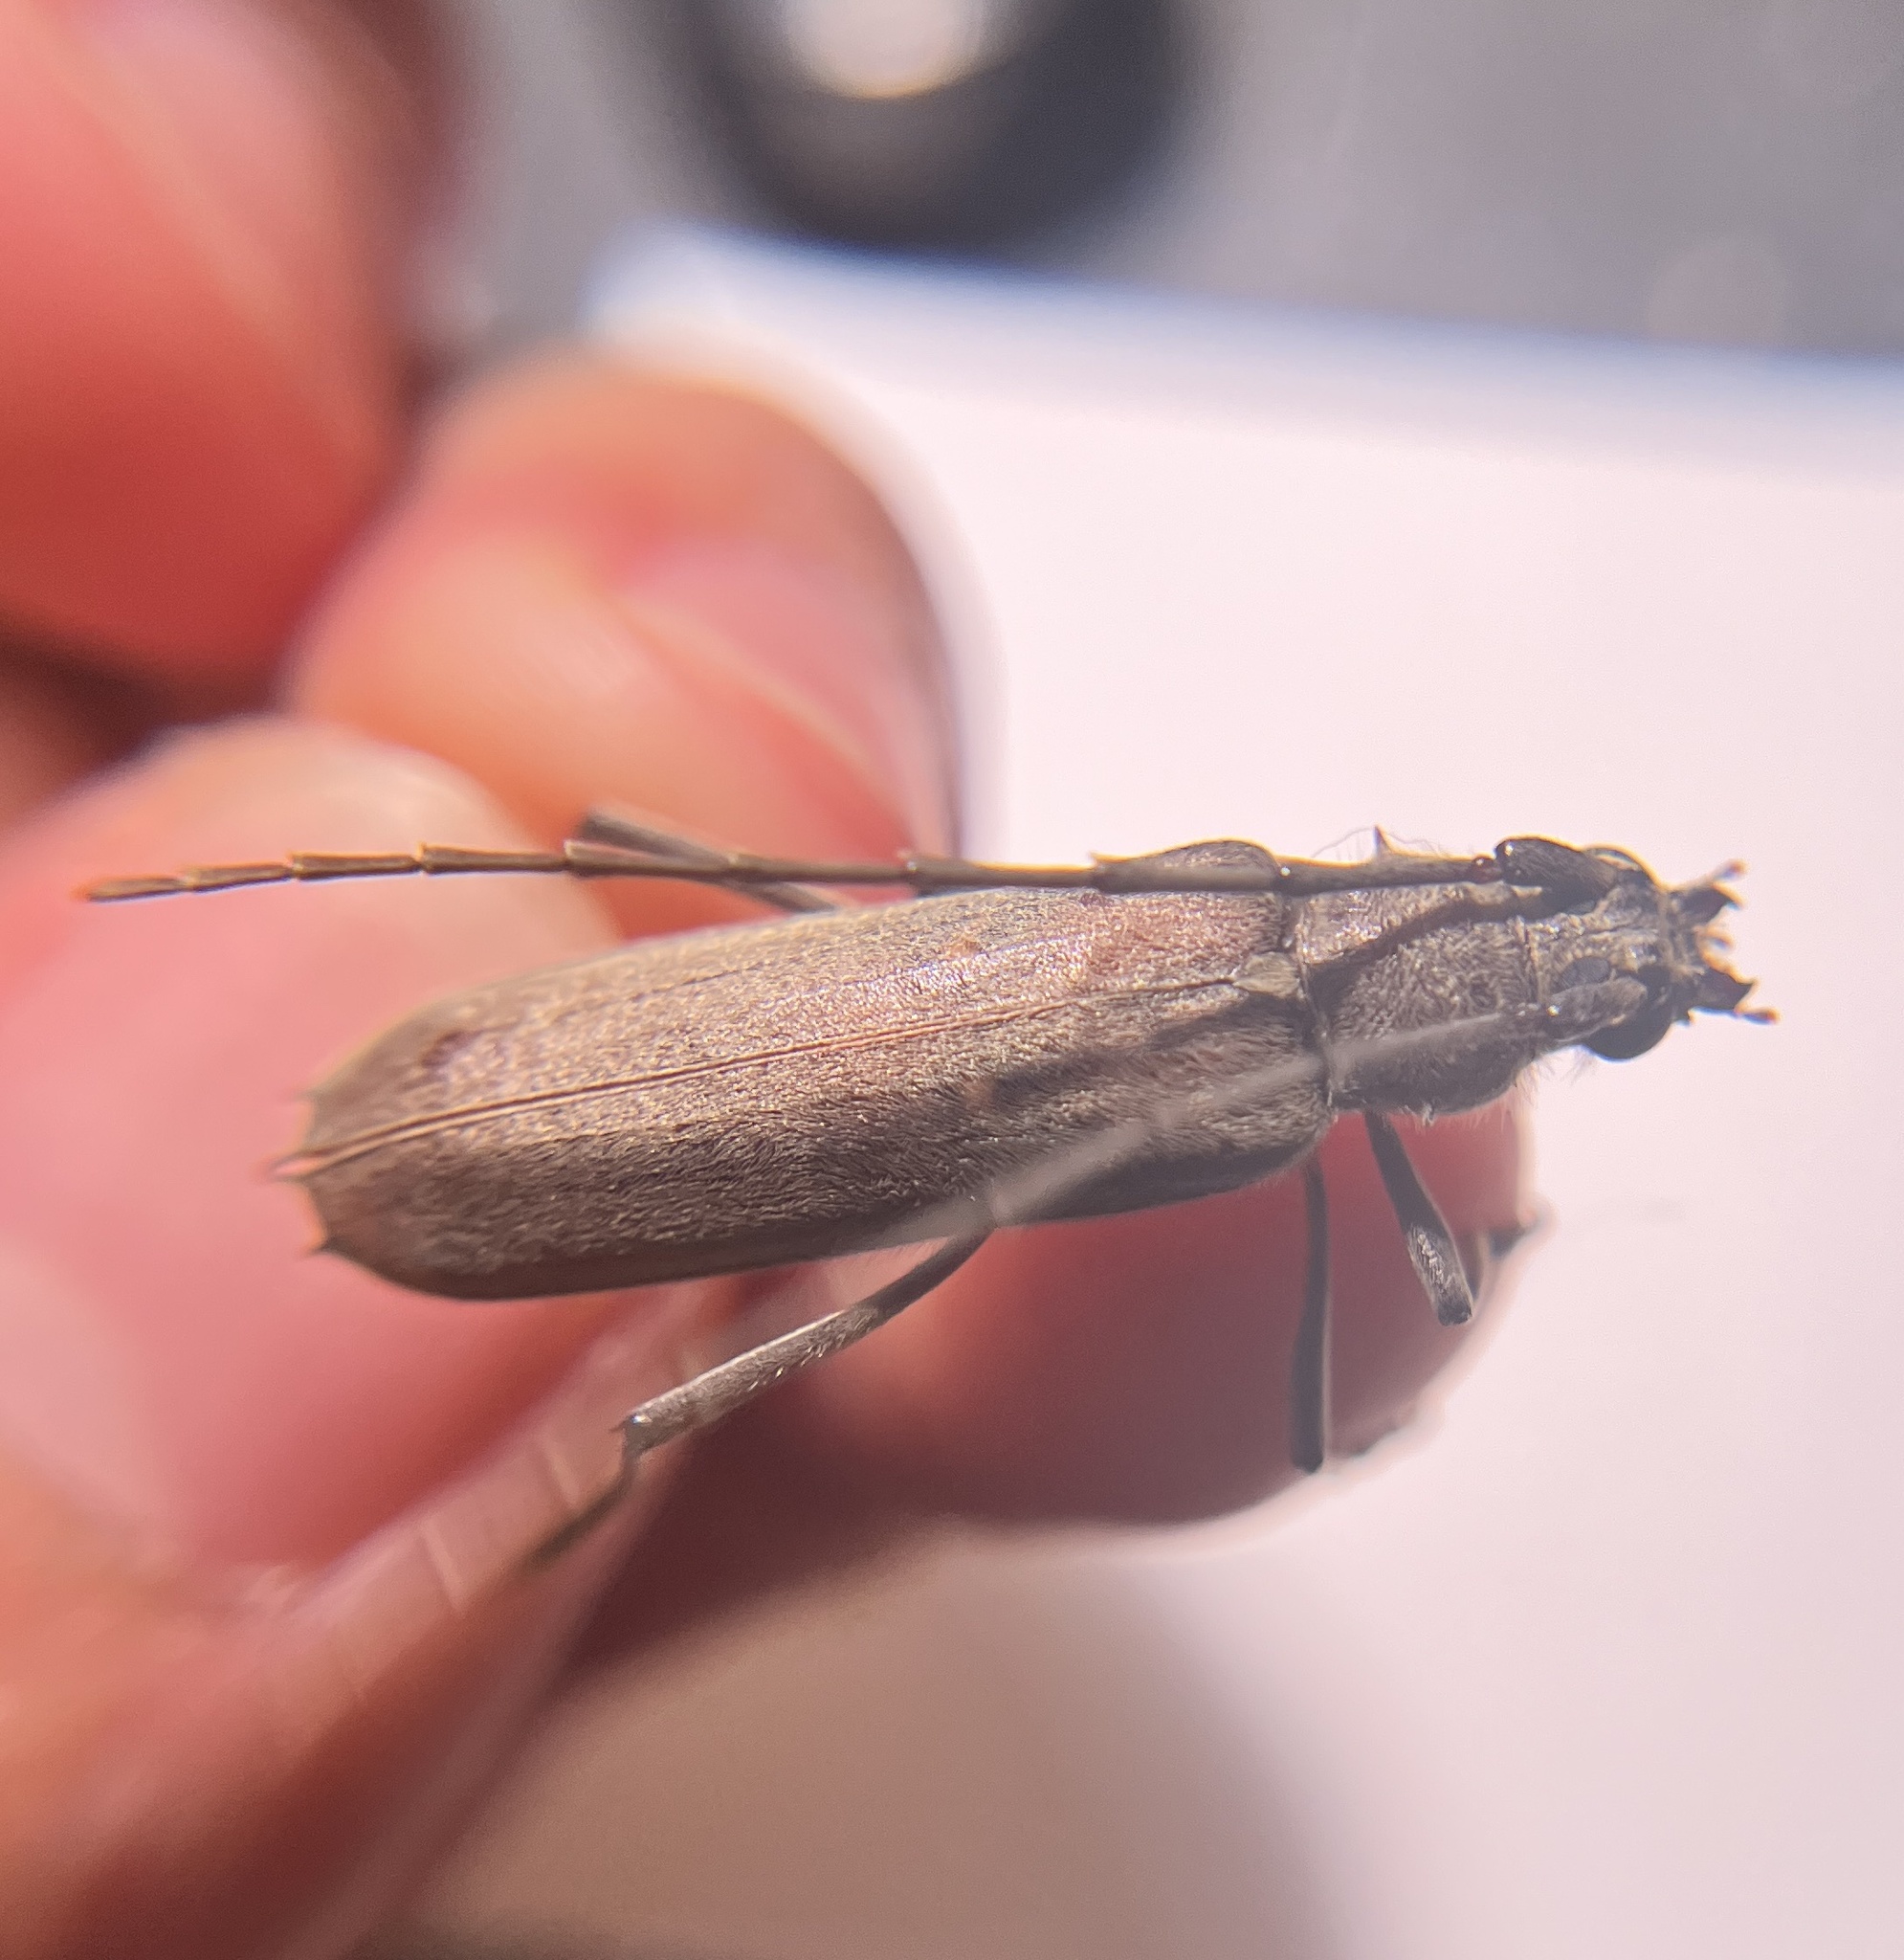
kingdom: Animalia
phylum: Arthropoda
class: Insecta
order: Coleoptera
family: Cerambycidae
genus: Knulliana
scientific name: Knulliana cincta
